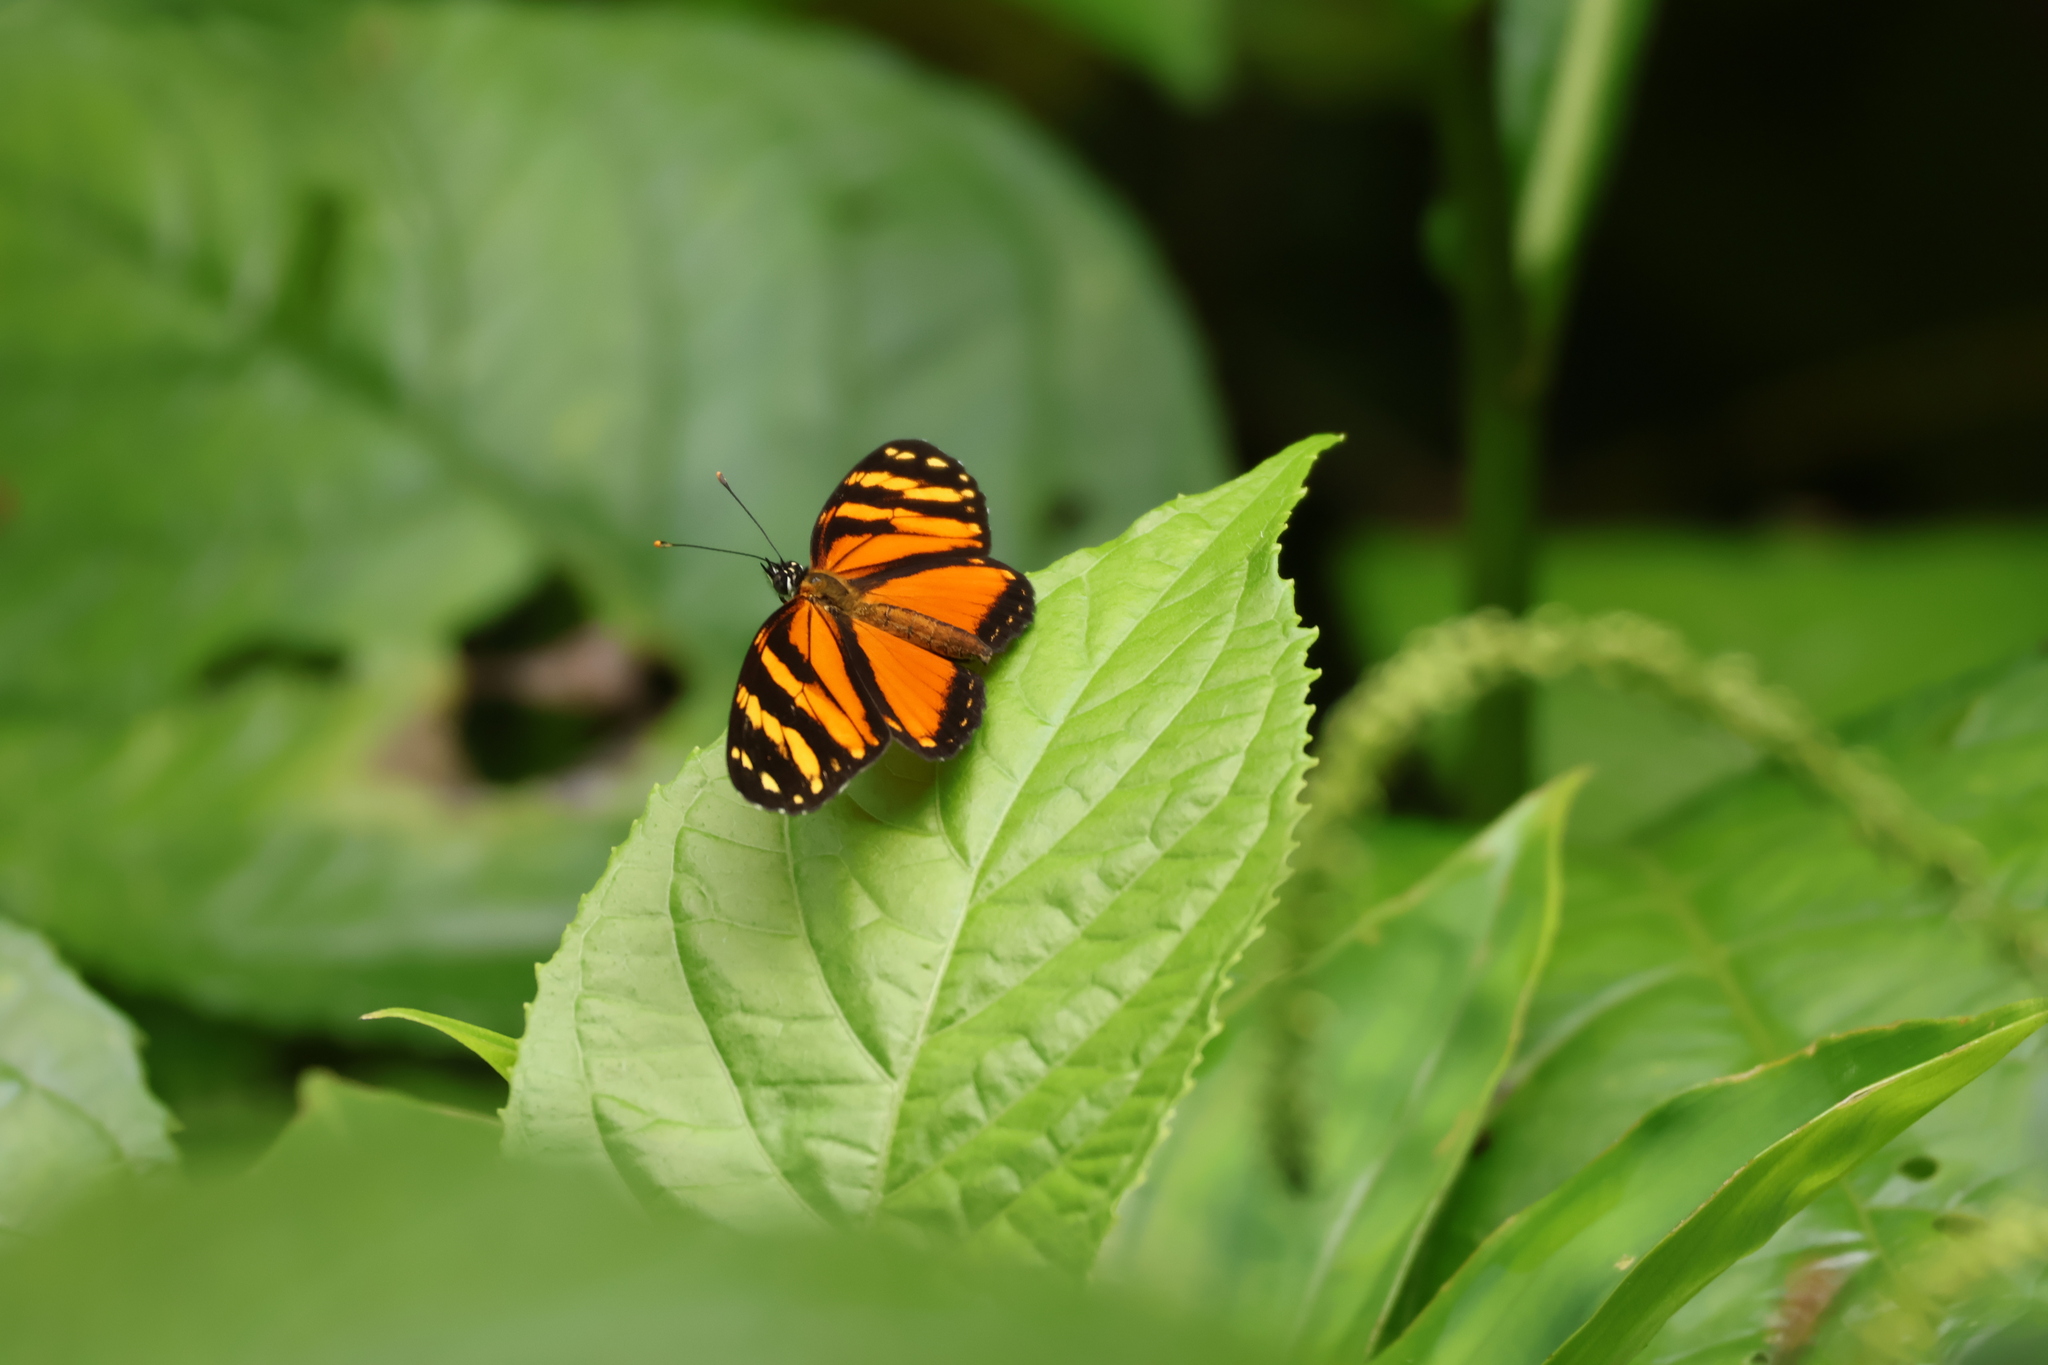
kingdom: Animalia
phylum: Arthropoda
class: Insecta
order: Lepidoptera
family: Nymphalidae
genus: Eresia
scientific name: Eresia ithomioides
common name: Variable crescent
